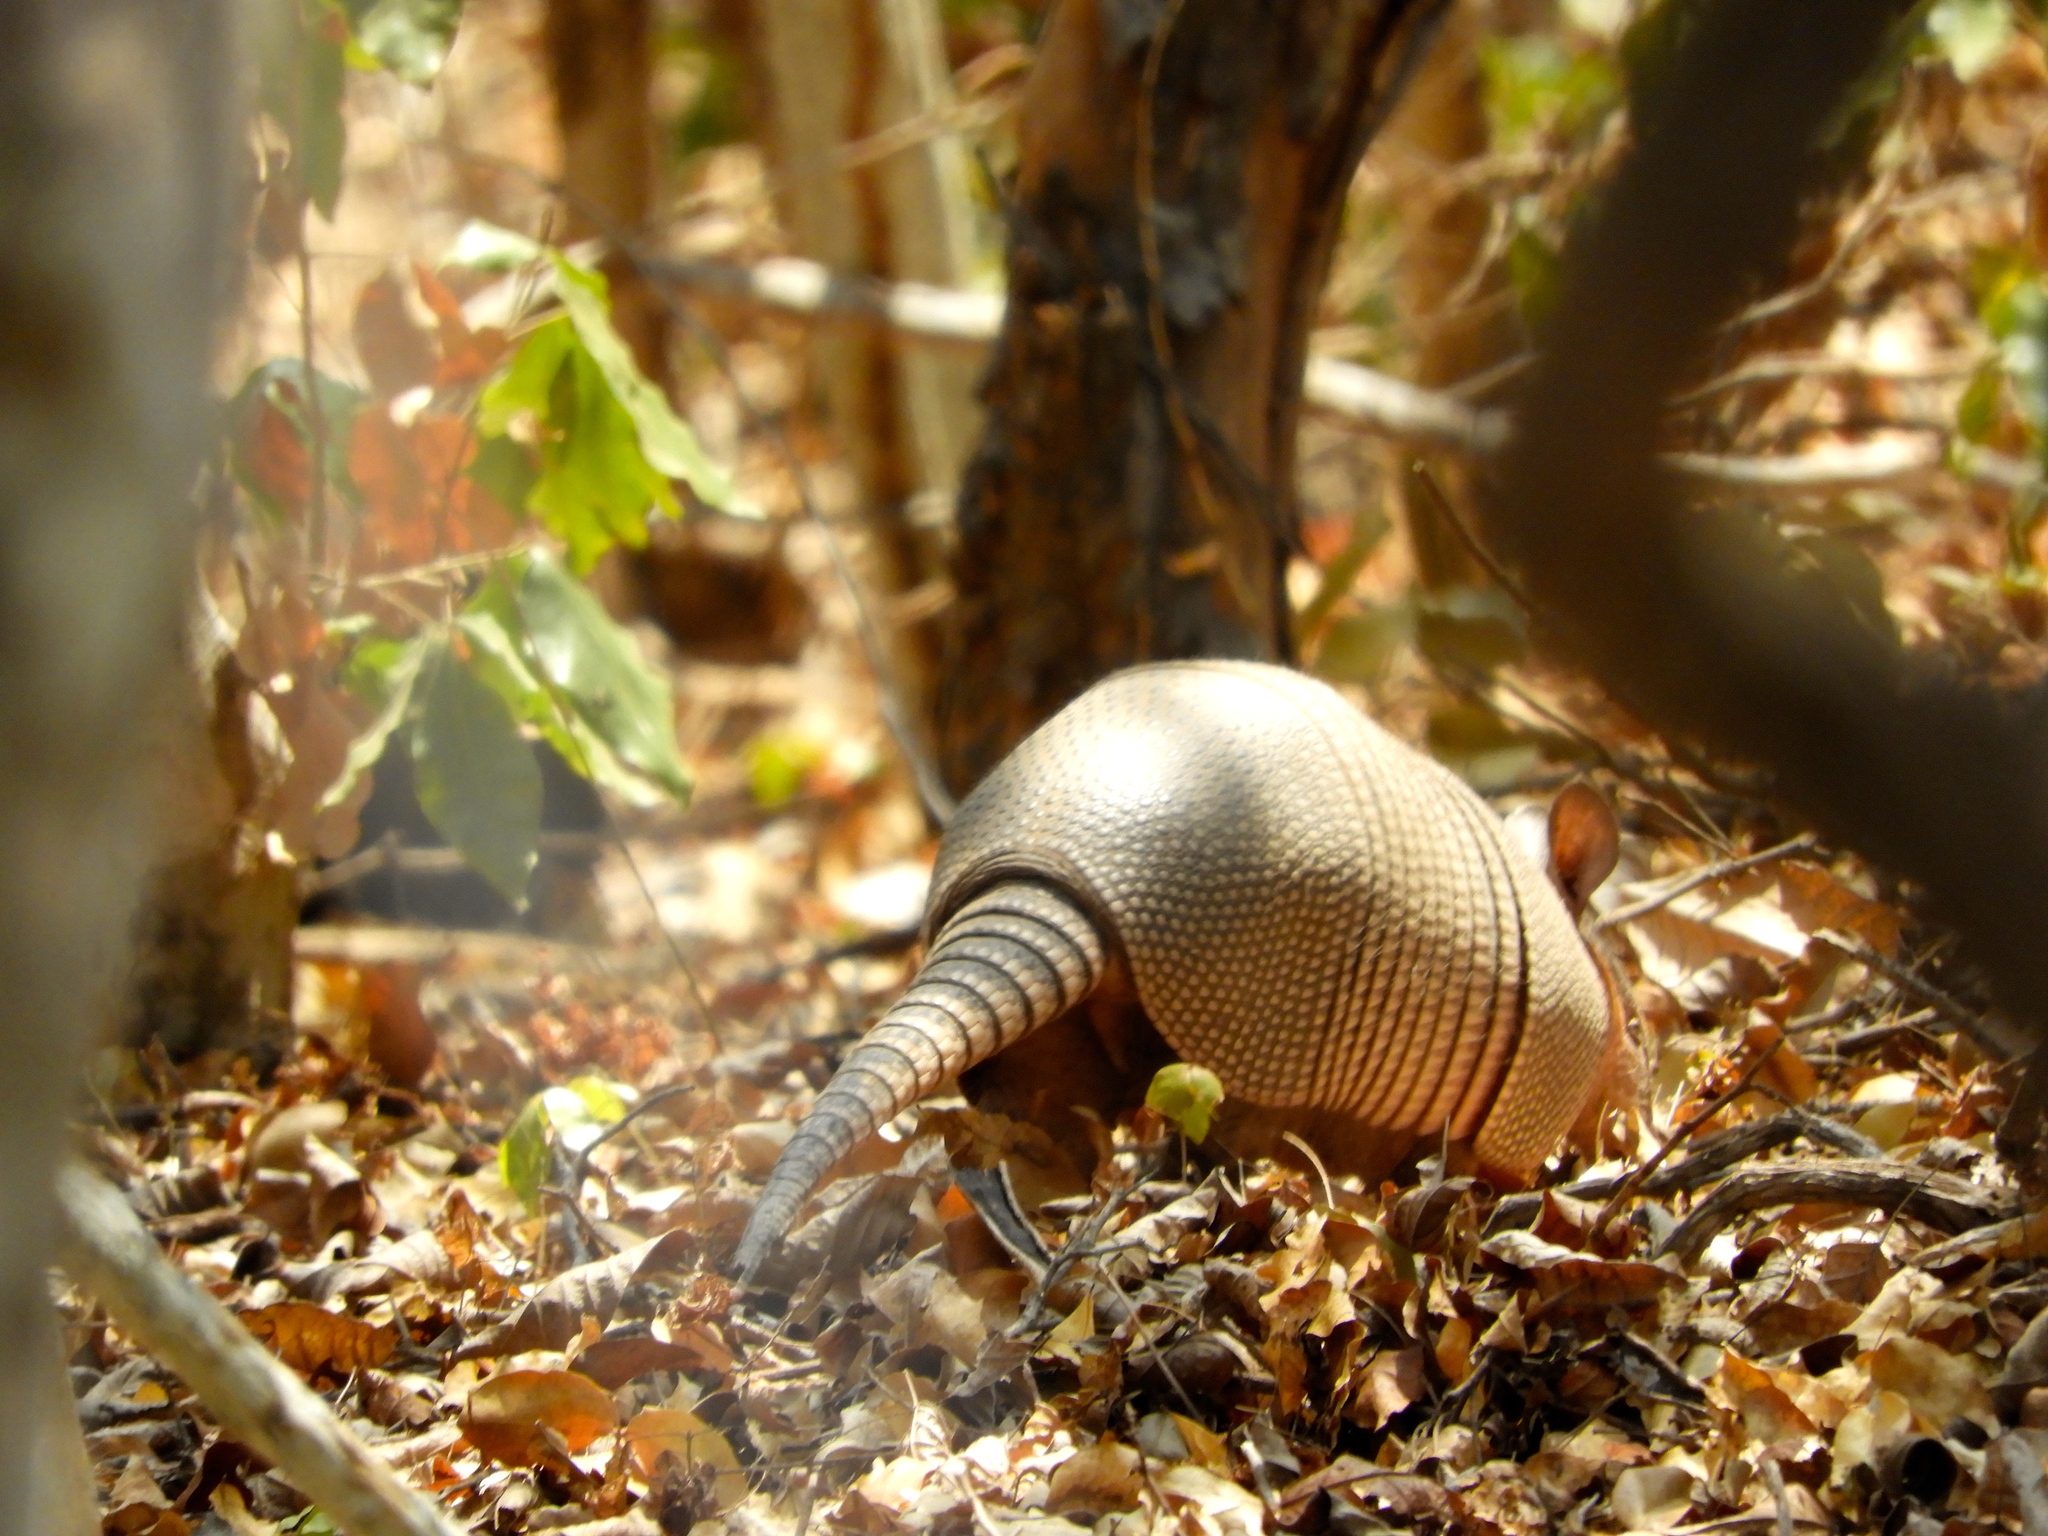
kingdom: Animalia
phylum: Chordata
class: Mammalia
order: Cingulata
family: Dasypodidae
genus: Dasypus
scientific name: Dasypus novemcinctus
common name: Nine-banded armadillo
